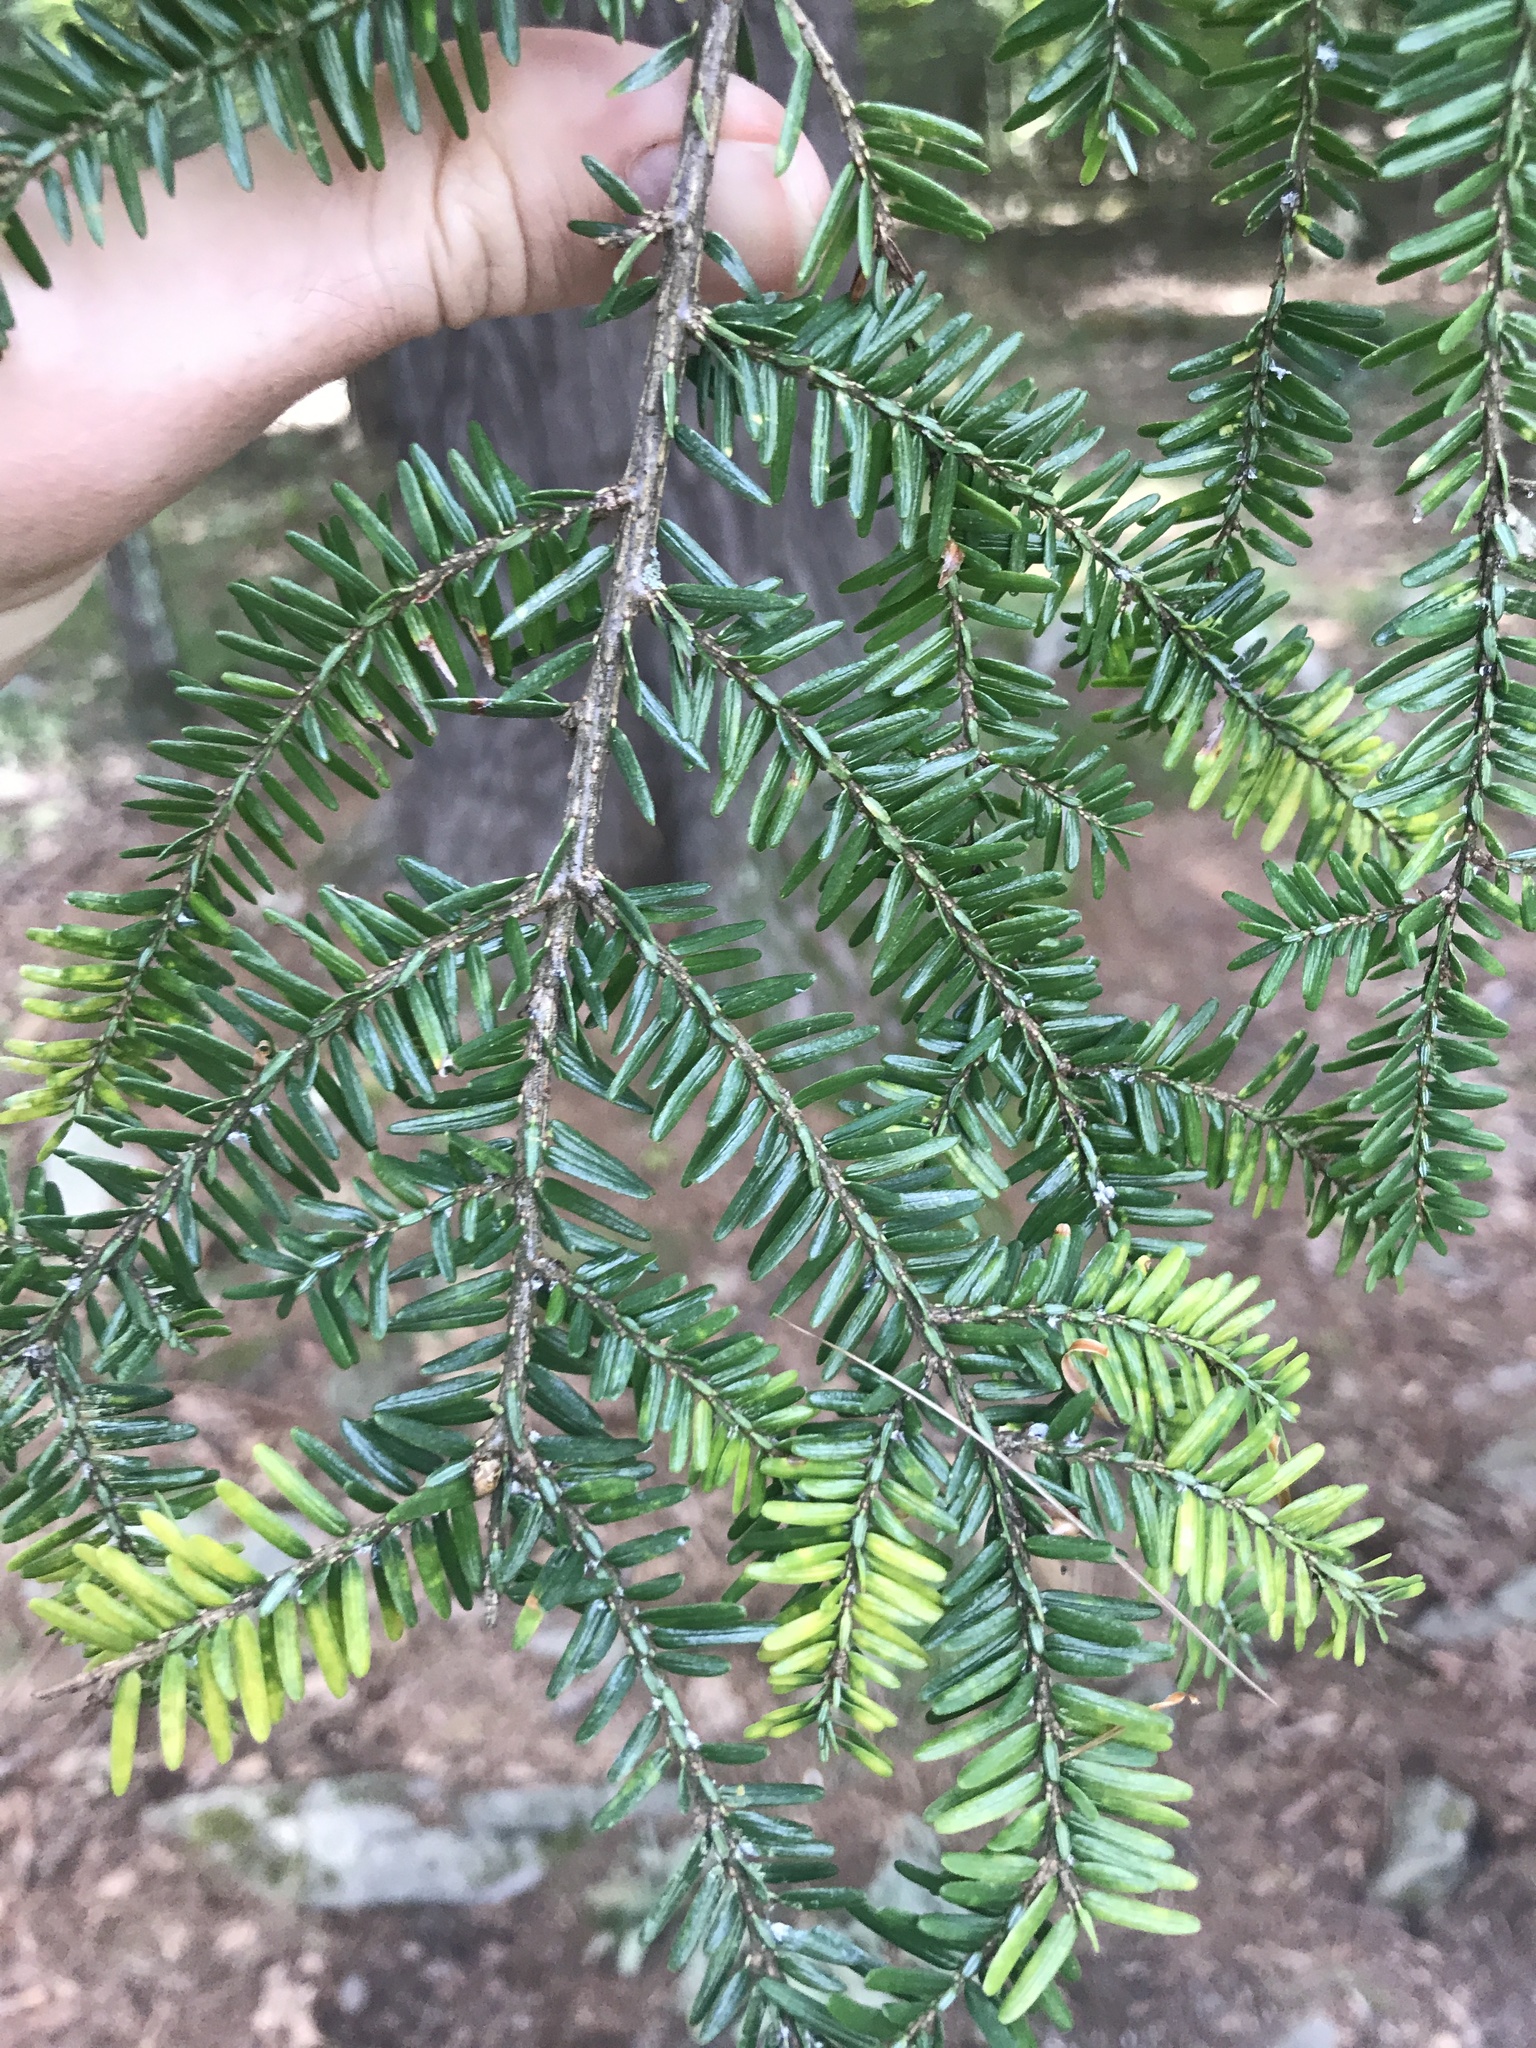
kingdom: Plantae
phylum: Tracheophyta
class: Pinopsida
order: Pinales
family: Pinaceae
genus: Tsuga
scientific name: Tsuga canadensis
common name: Eastern hemlock
